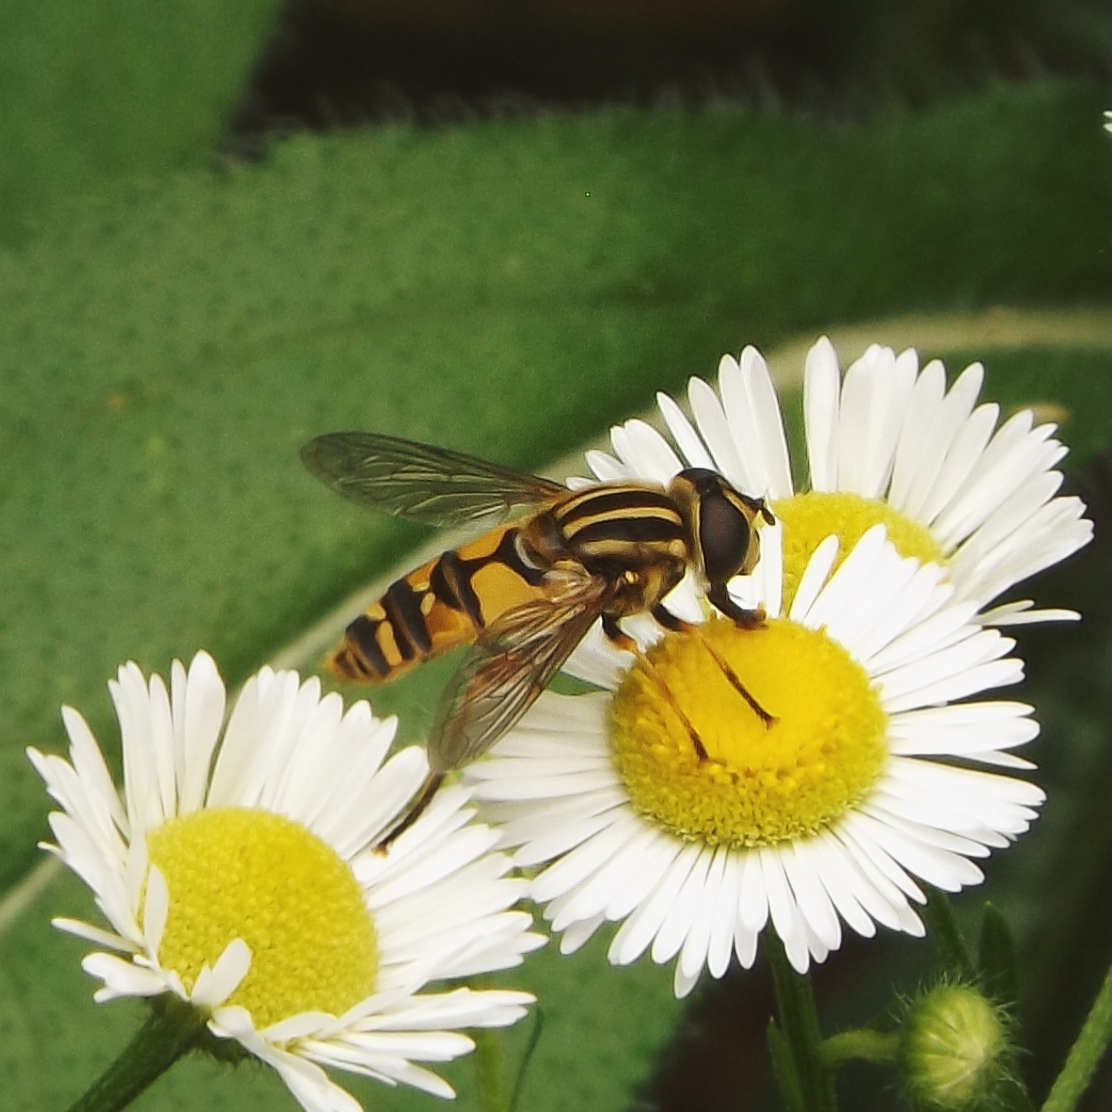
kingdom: Animalia
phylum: Arthropoda
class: Insecta
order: Diptera
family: Syrphidae
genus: Helophilus
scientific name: Helophilus pendulus
